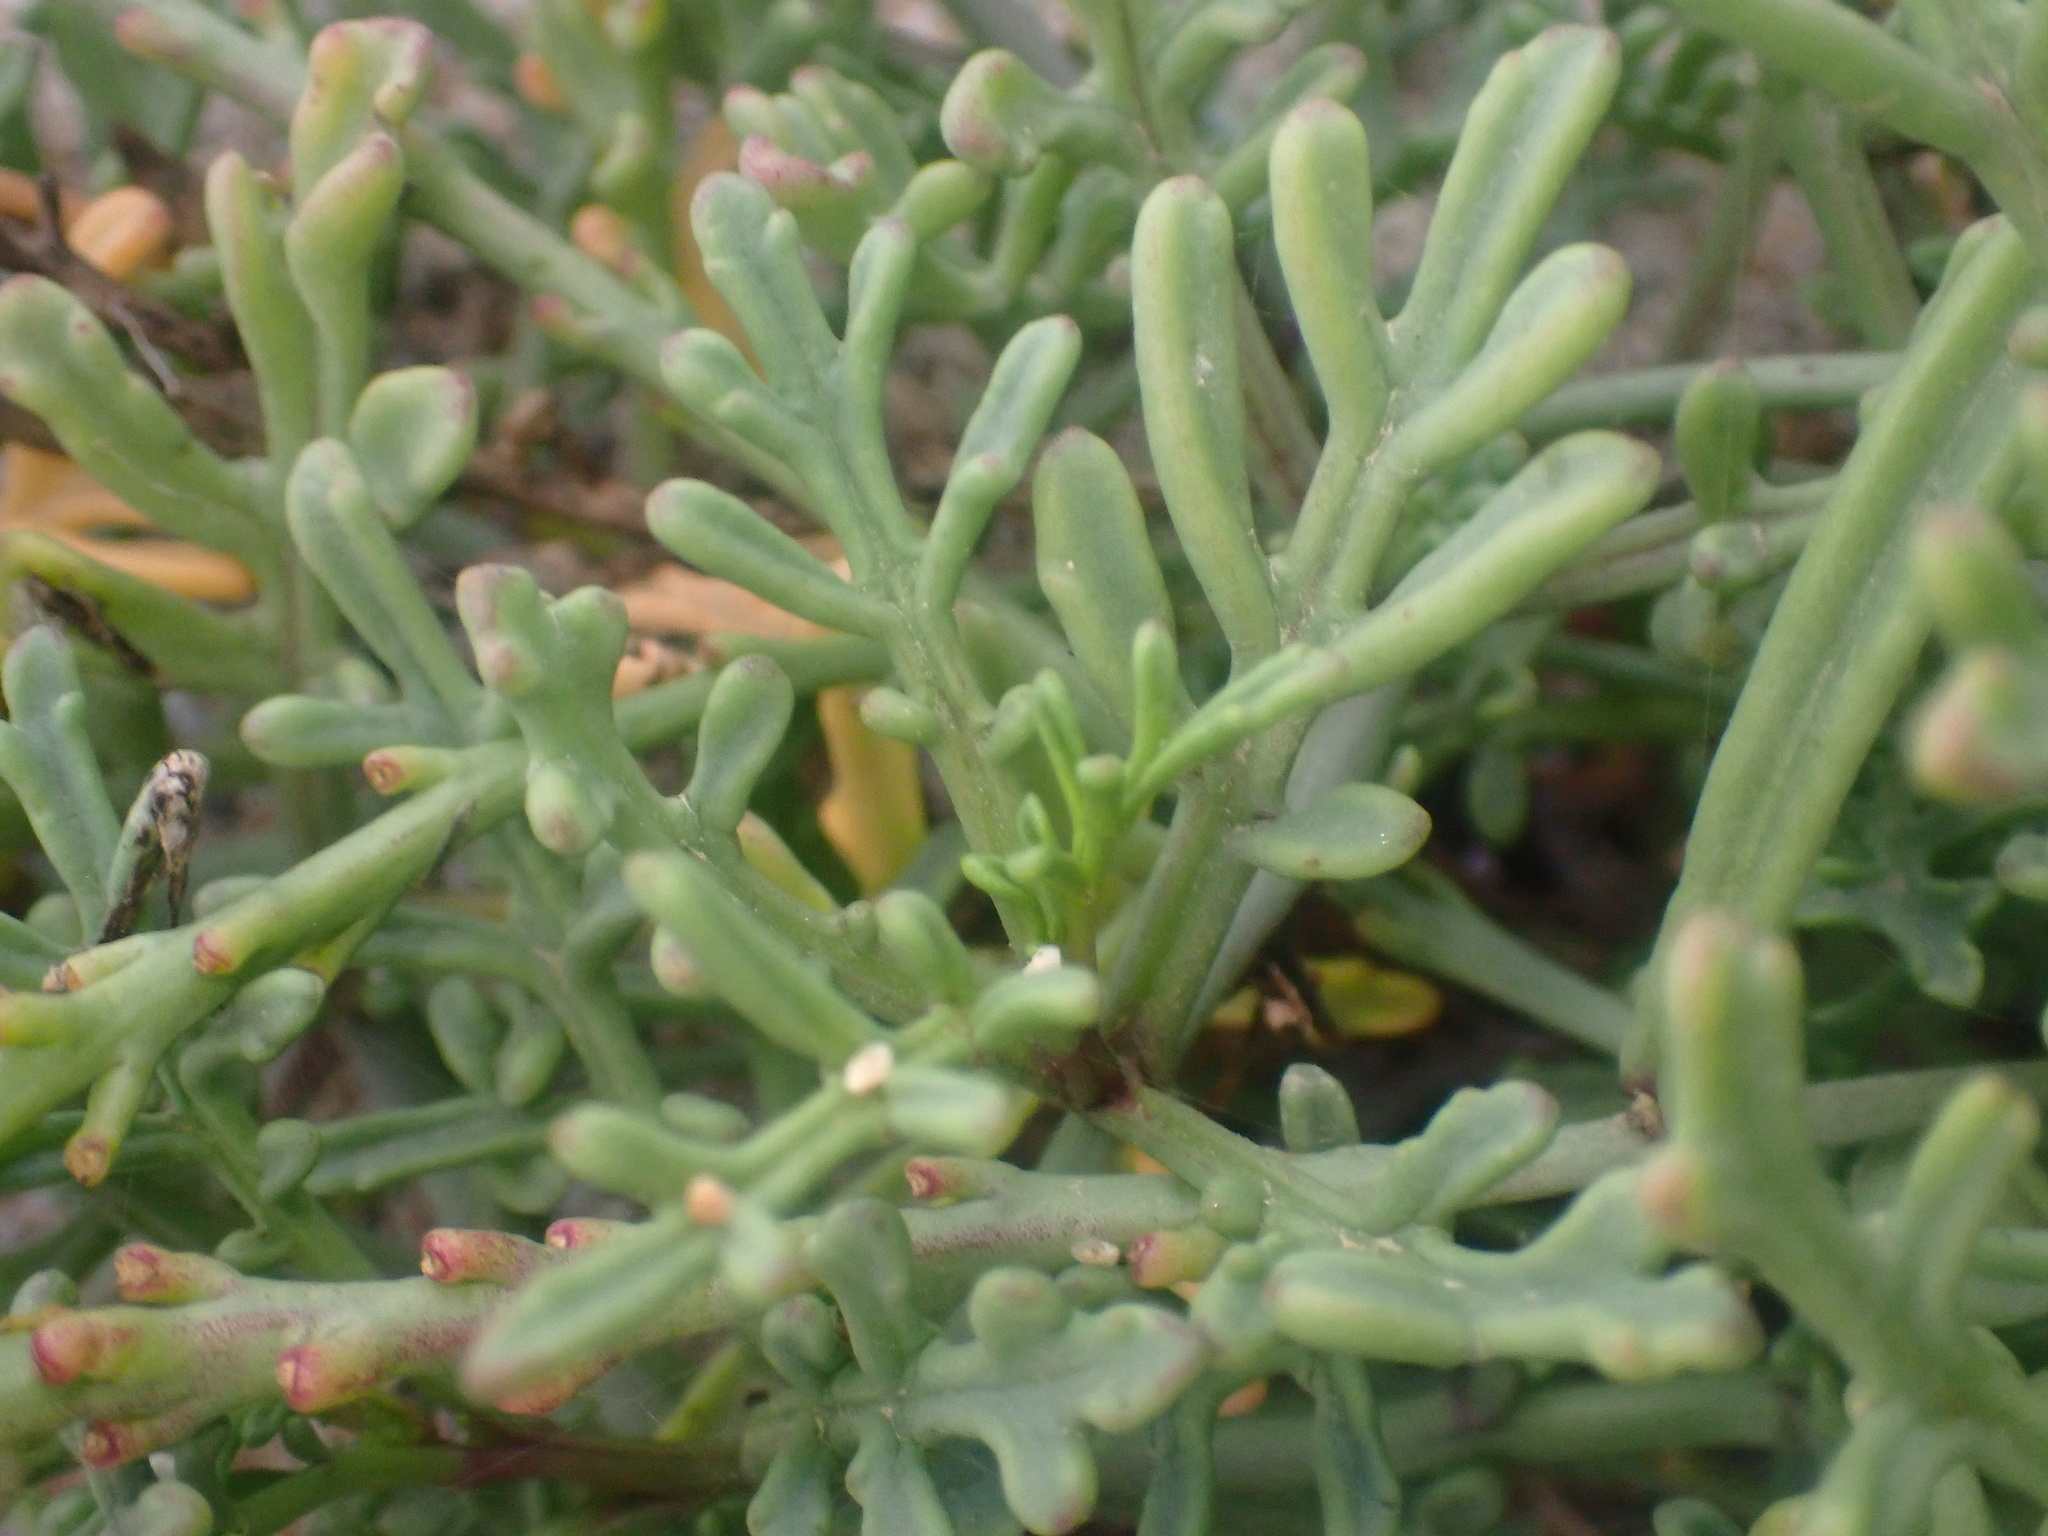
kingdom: Plantae
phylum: Tracheophyta
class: Magnoliopsida
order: Brassicales
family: Brassicaceae
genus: Cakile
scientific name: Cakile maritima
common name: Sea rocket
